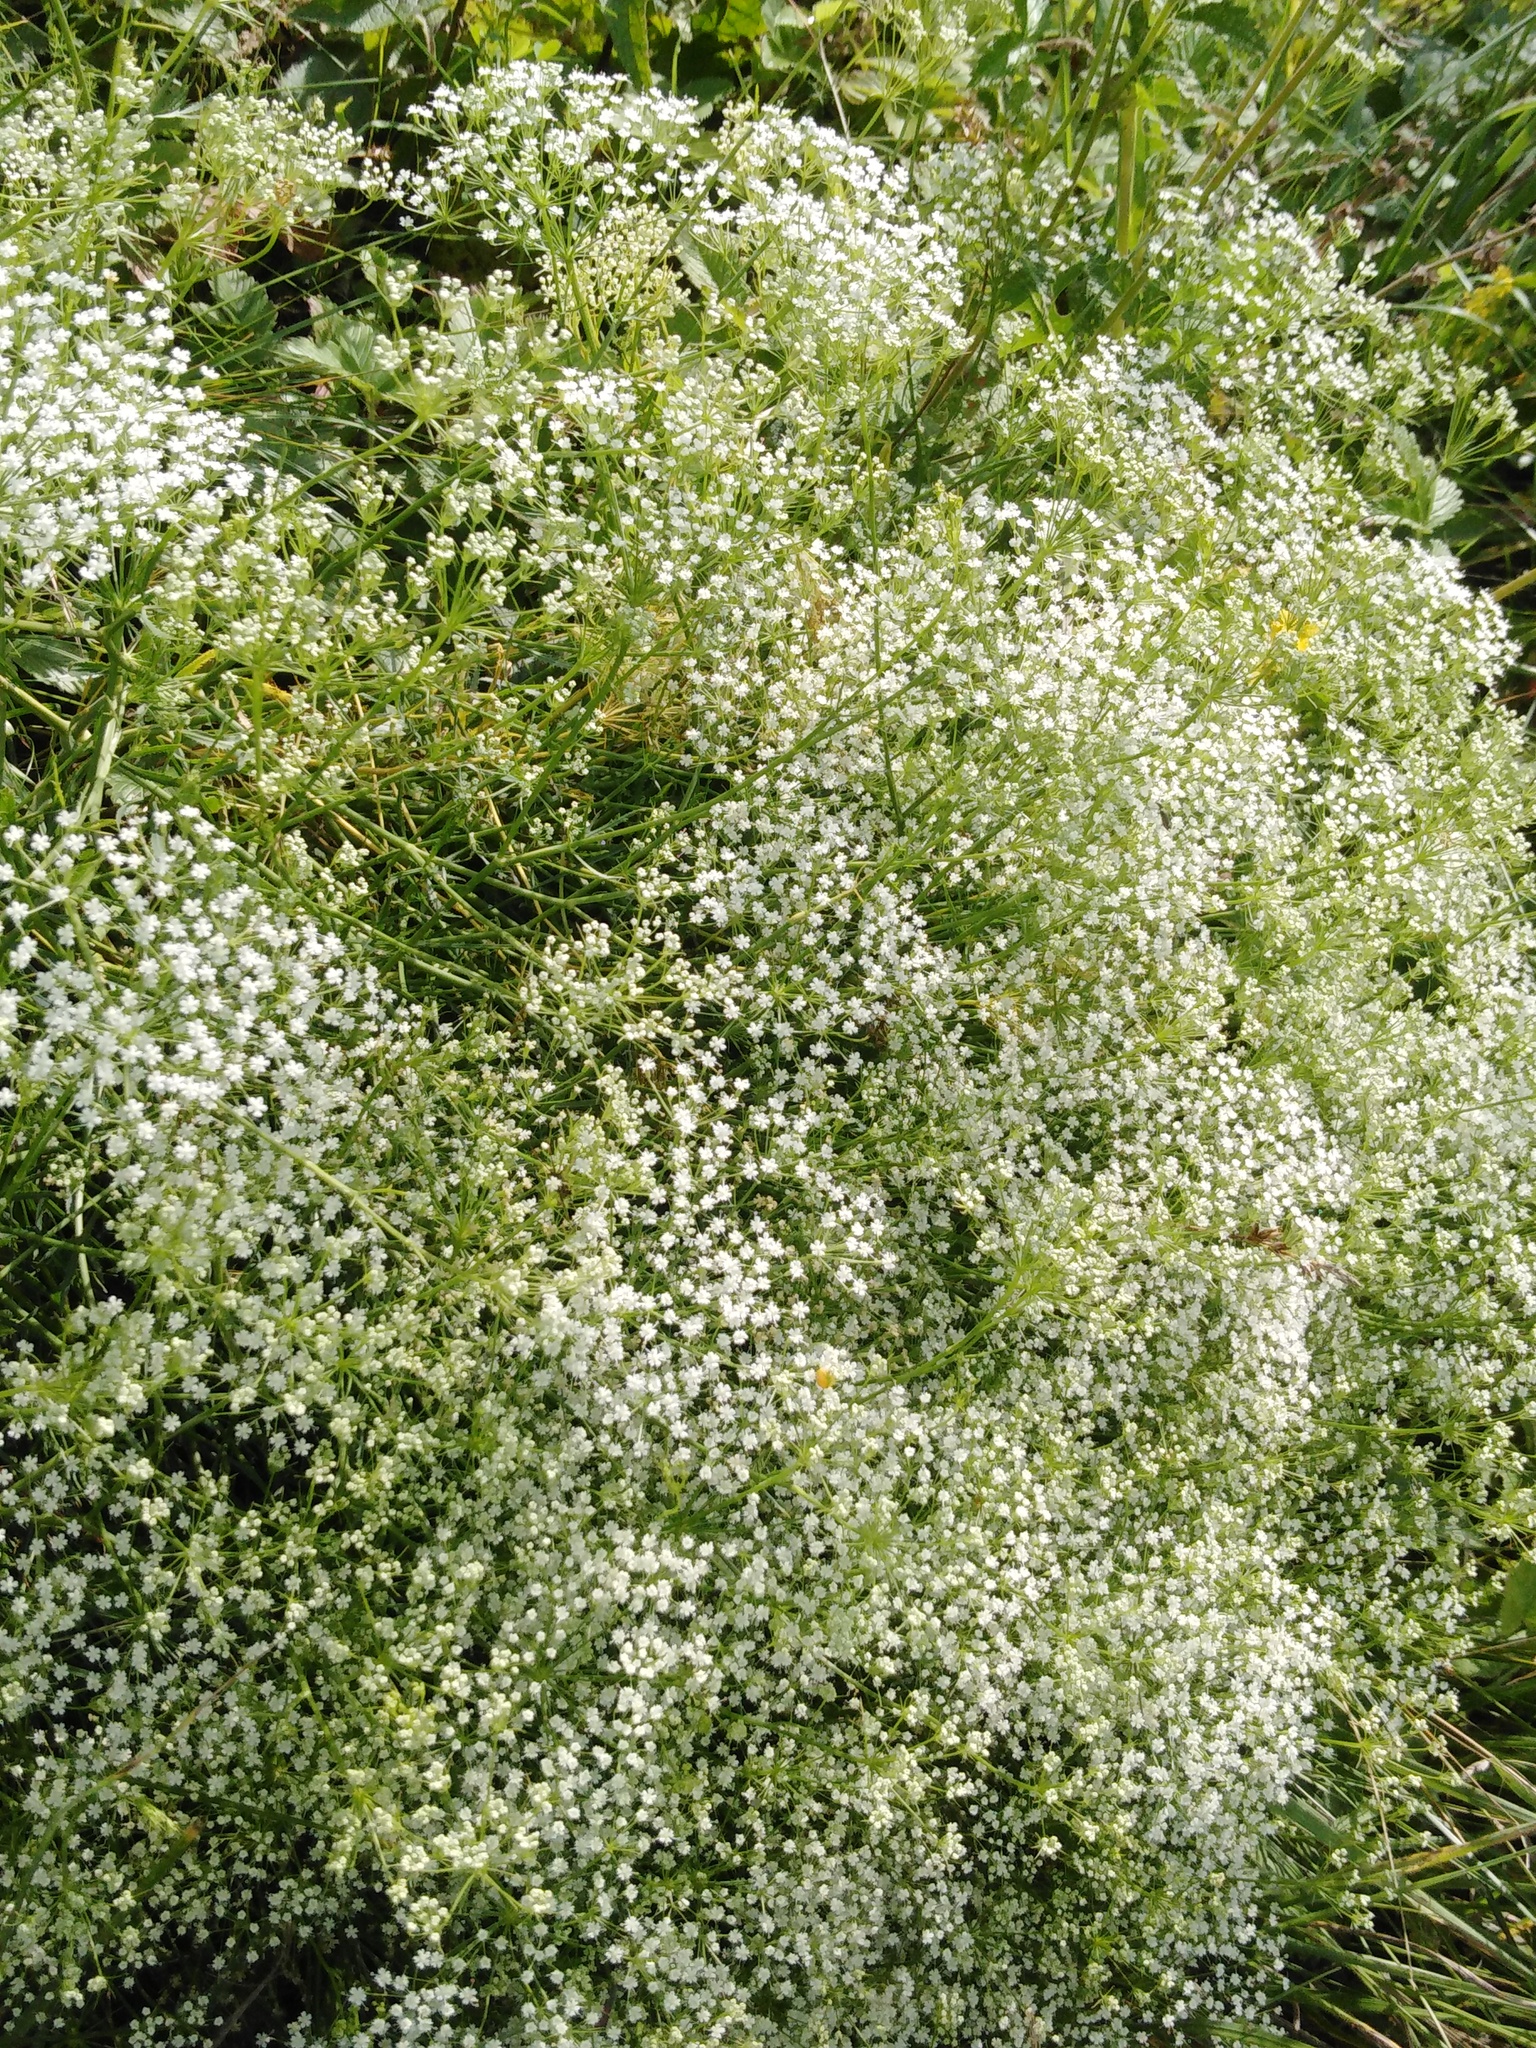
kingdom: Plantae
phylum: Tracheophyta
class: Magnoliopsida
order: Apiales
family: Apiaceae
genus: Falcaria
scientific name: Falcaria vulgaris
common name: Longleaf
